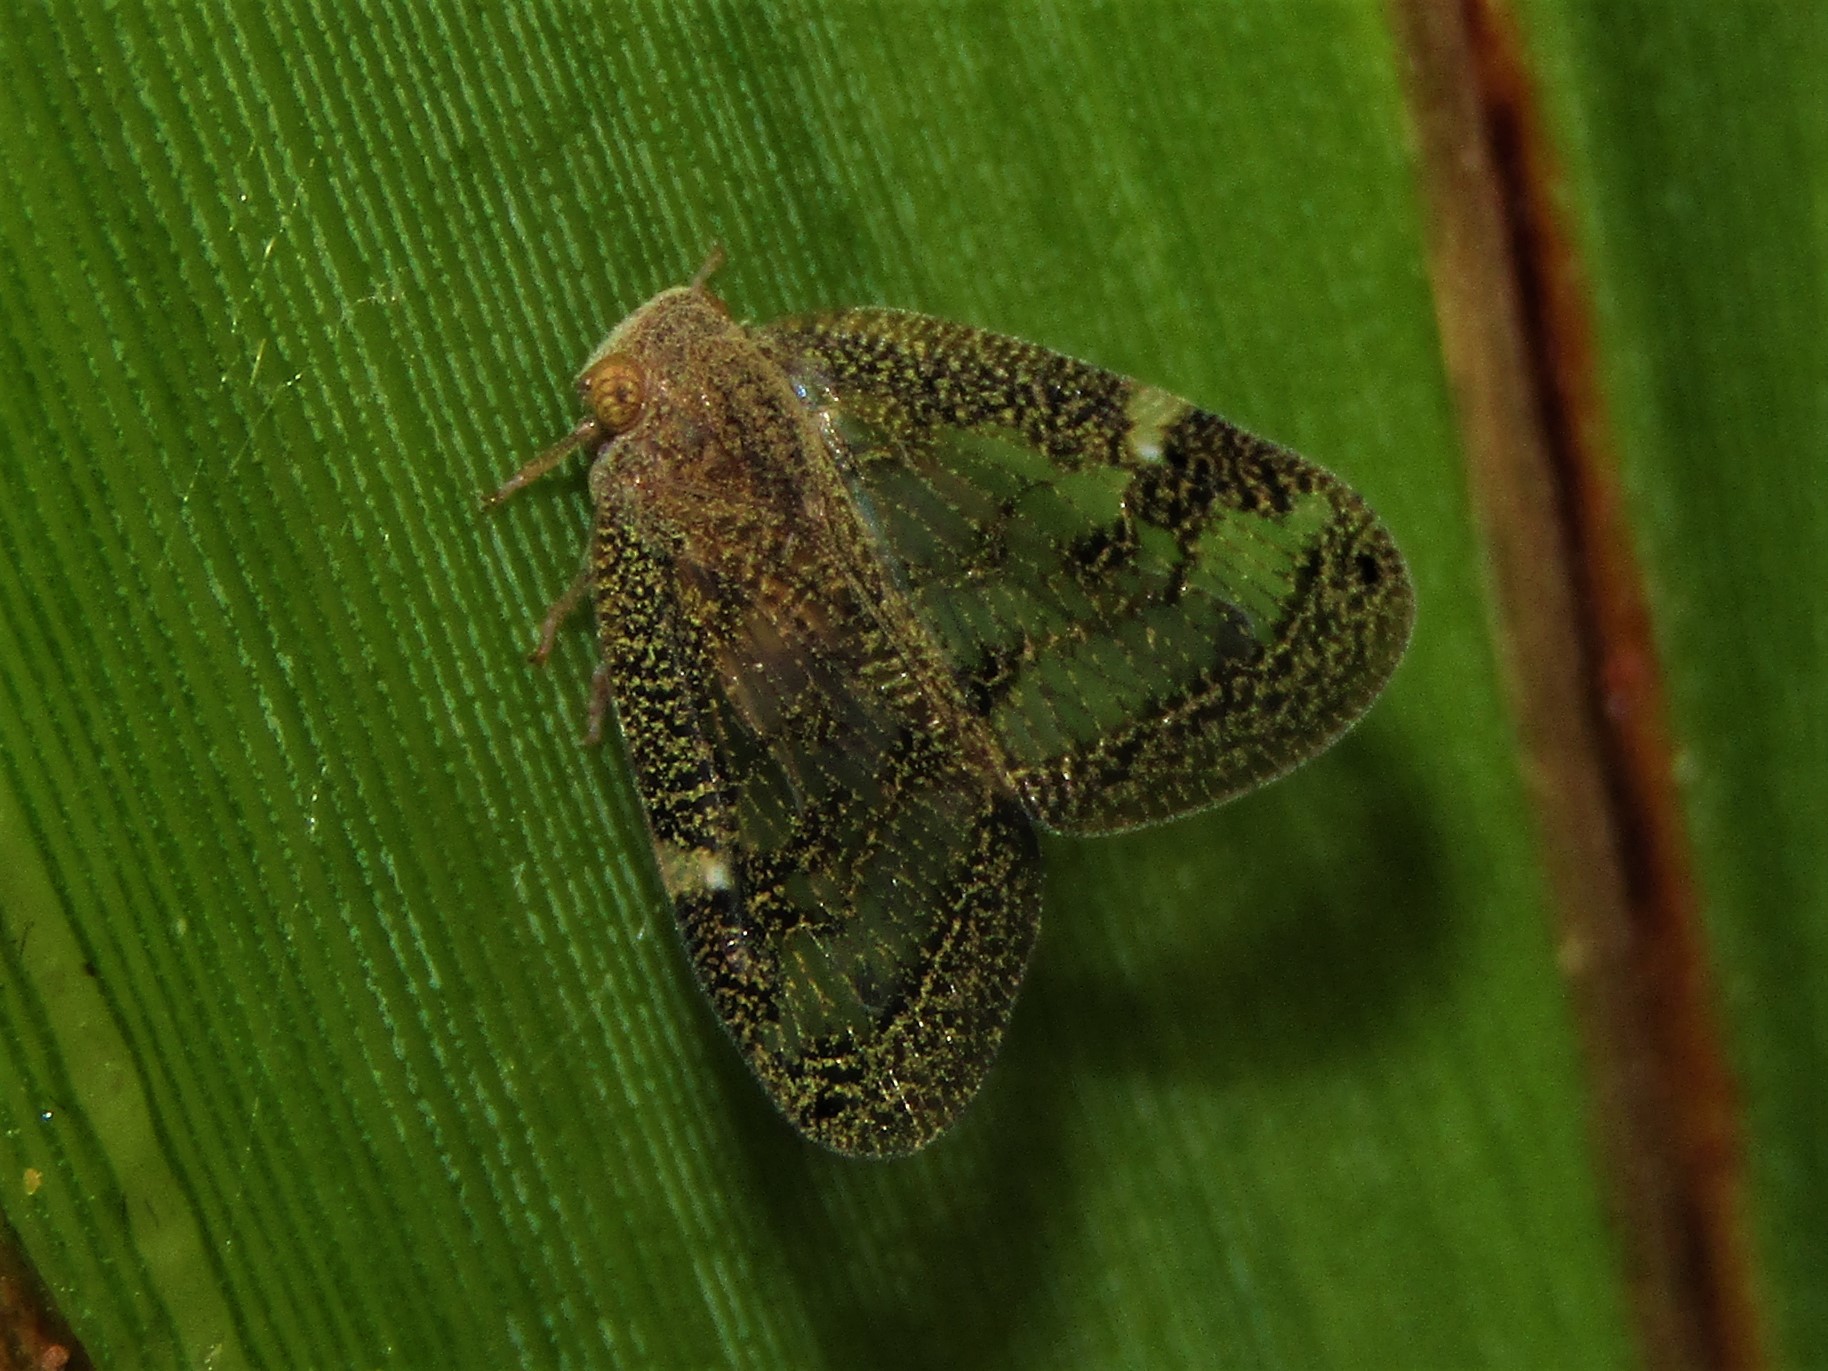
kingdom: Animalia
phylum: Arthropoda
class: Insecta
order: Hemiptera
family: Ricaniidae
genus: Scolypopa
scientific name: Scolypopa australis
